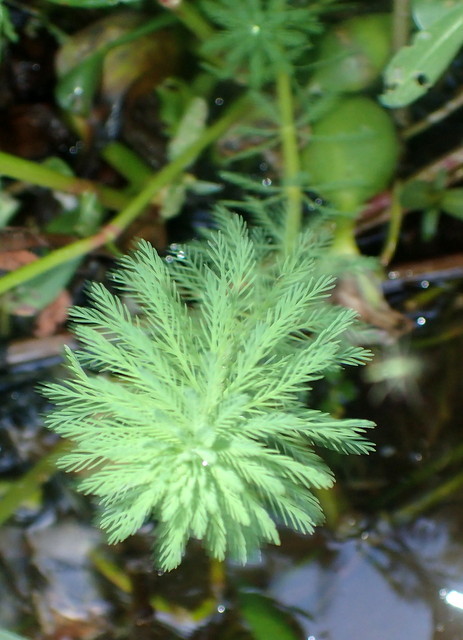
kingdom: Plantae
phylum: Tracheophyta
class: Magnoliopsida
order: Saxifragales
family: Haloragaceae
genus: Myriophyllum
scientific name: Myriophyllum aquaticum
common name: Parrot's feather
